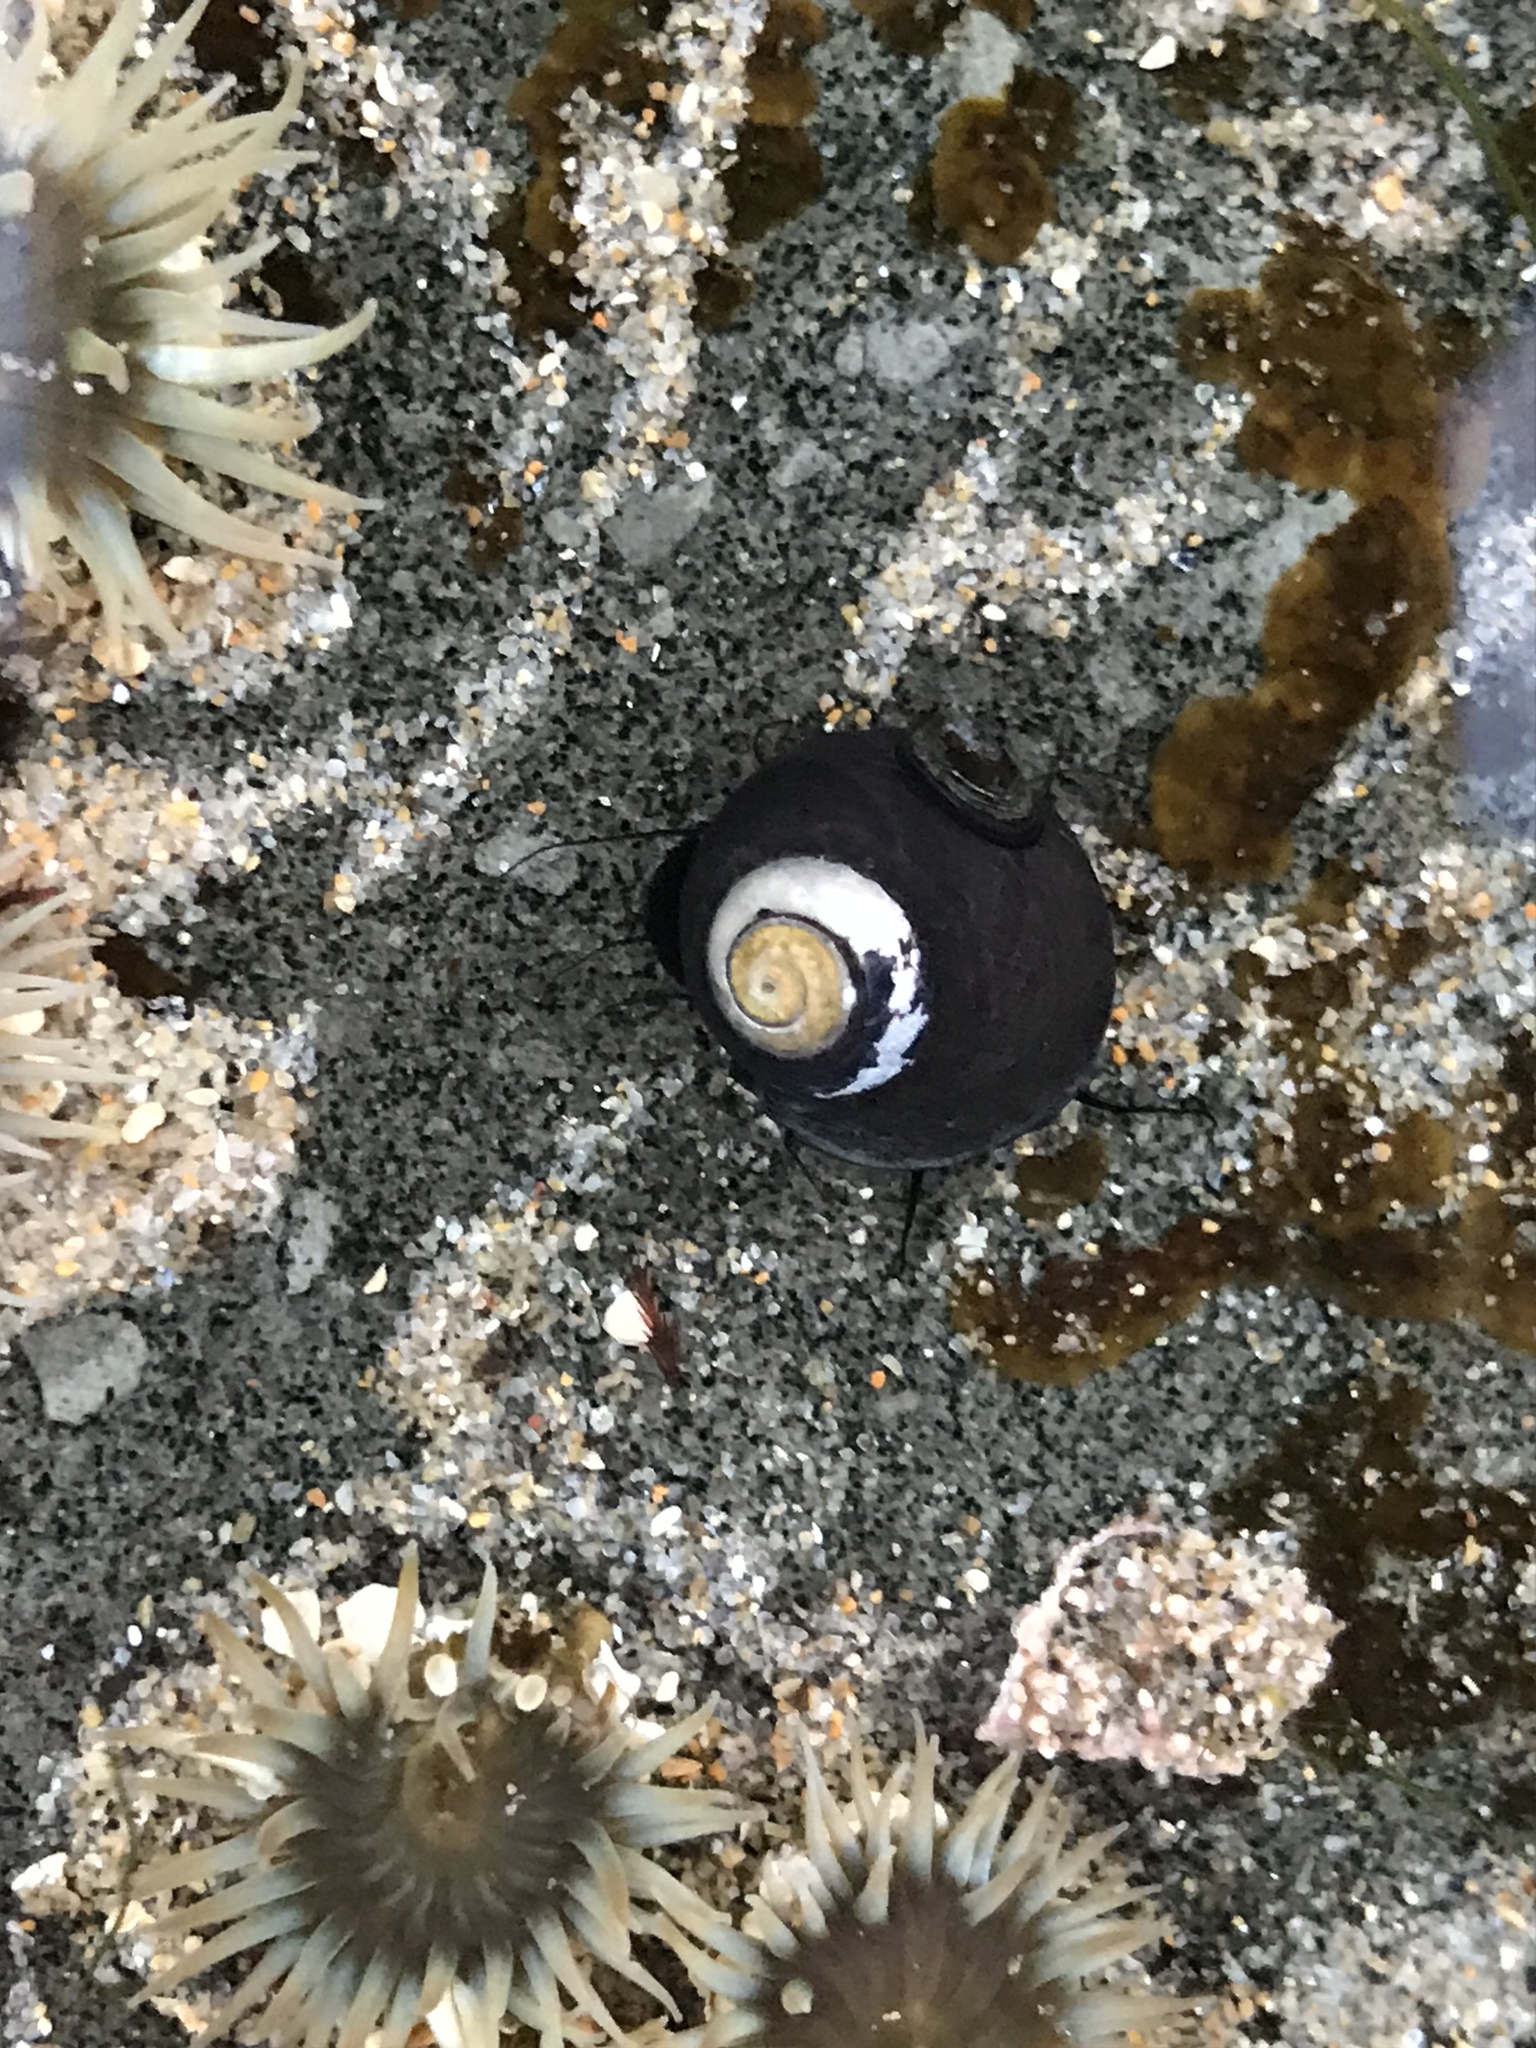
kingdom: Animalia
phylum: Mollusca
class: Gastropoda
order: Trochida
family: Tegulidae
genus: Tegula
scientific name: Tegula funebralis
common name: Black tegula
